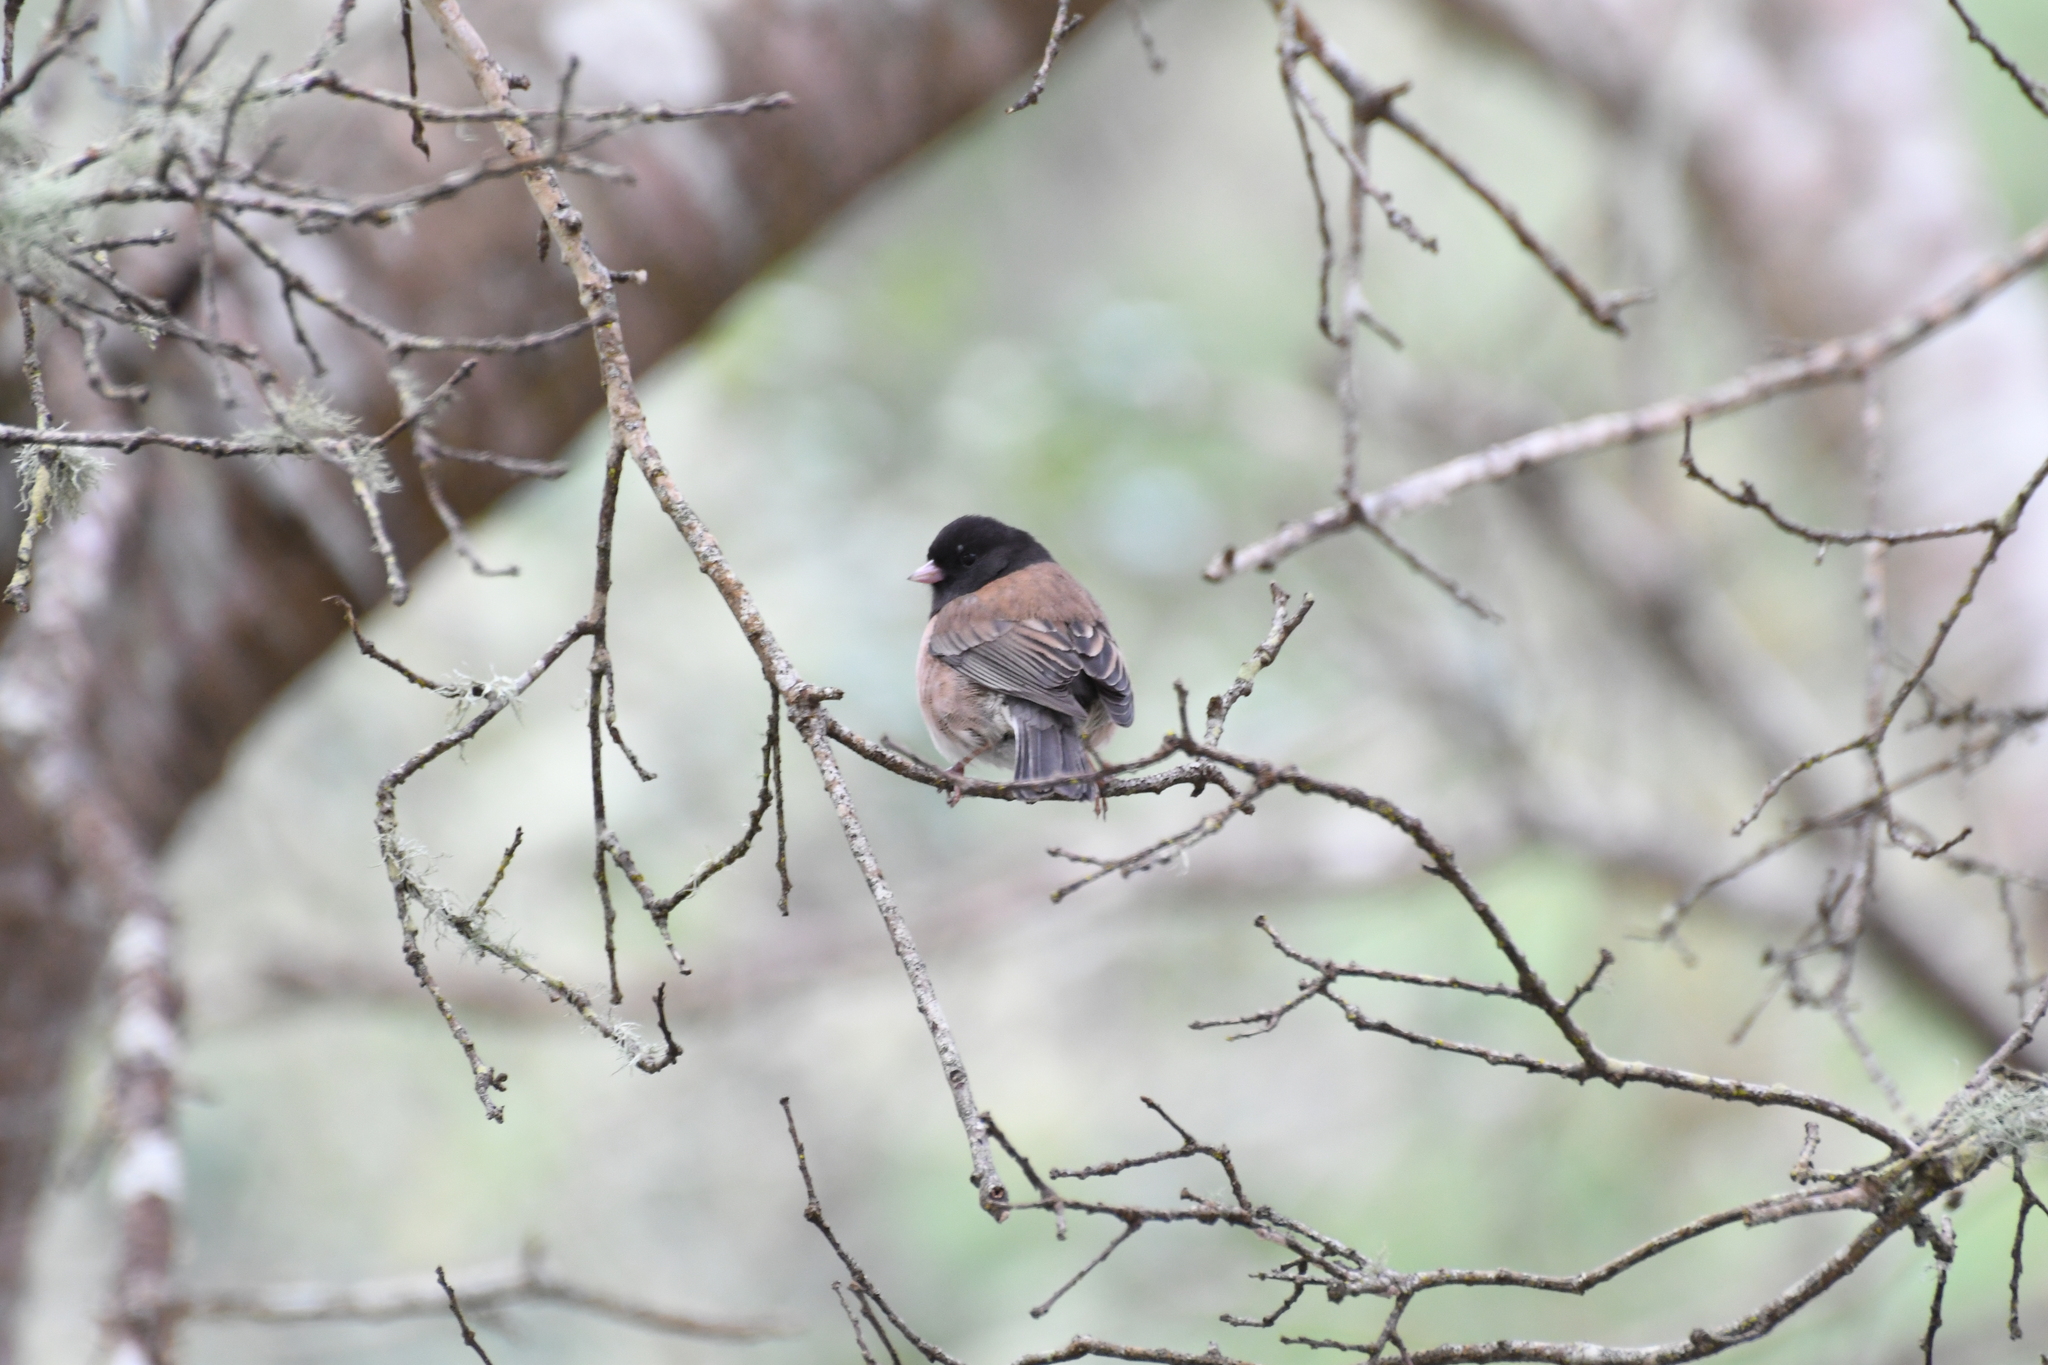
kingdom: Animalia
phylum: Chordata
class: Aves
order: Passeriformes
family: Passerellidae
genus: Junco
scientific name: Junco hyemalis
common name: Dark-eyed junco
